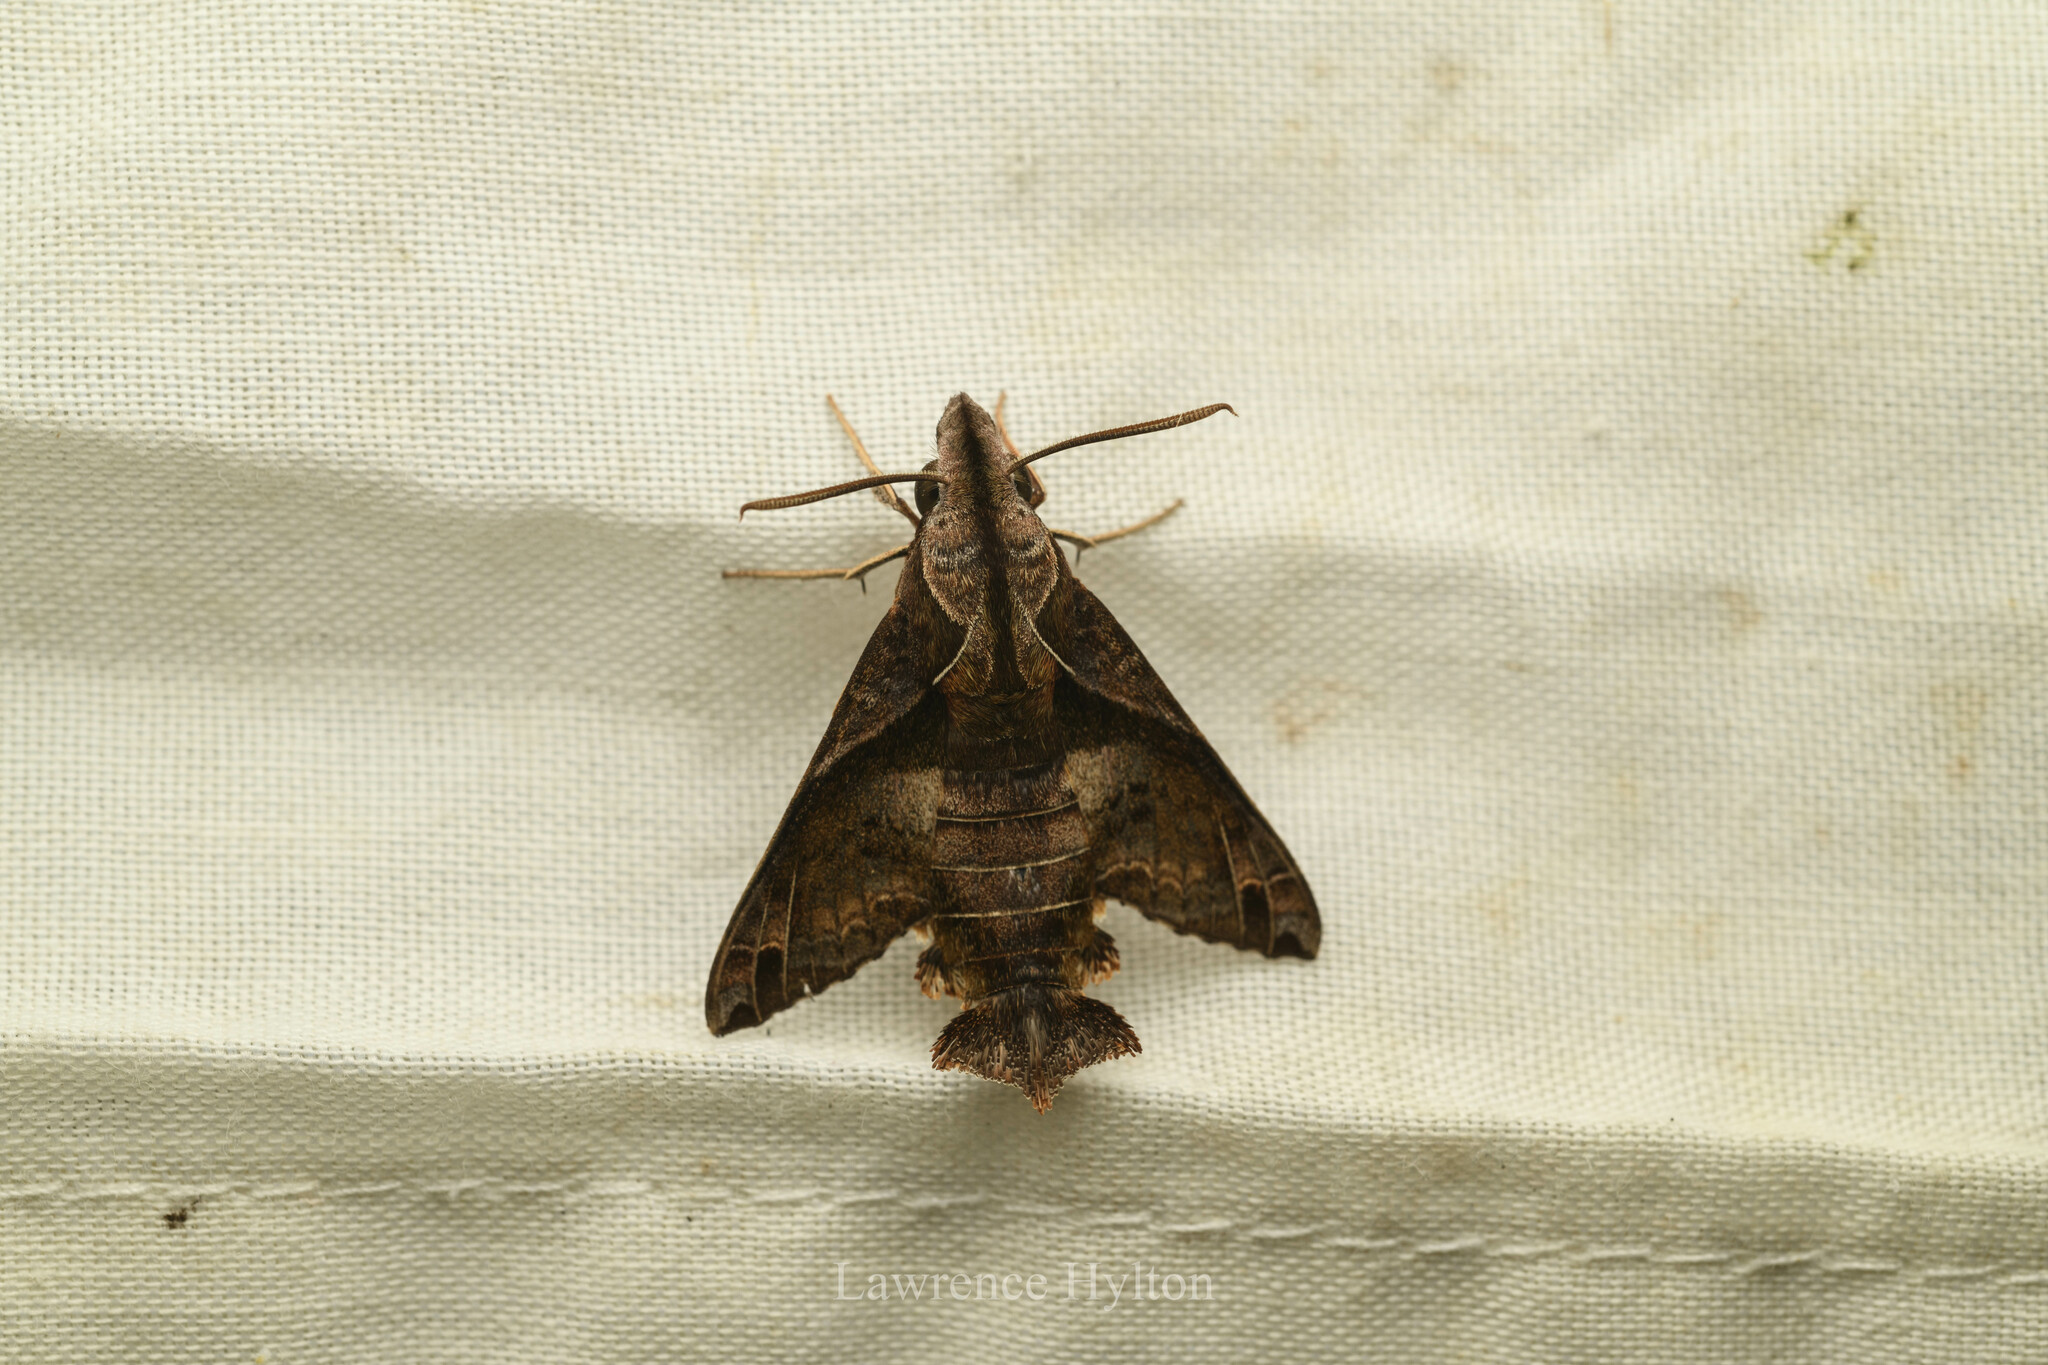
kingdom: Animalia
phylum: Arthropoda
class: Insecta
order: Lepidoptera
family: Sphingidae
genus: Macroglossum
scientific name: Macroglossum fritzei
